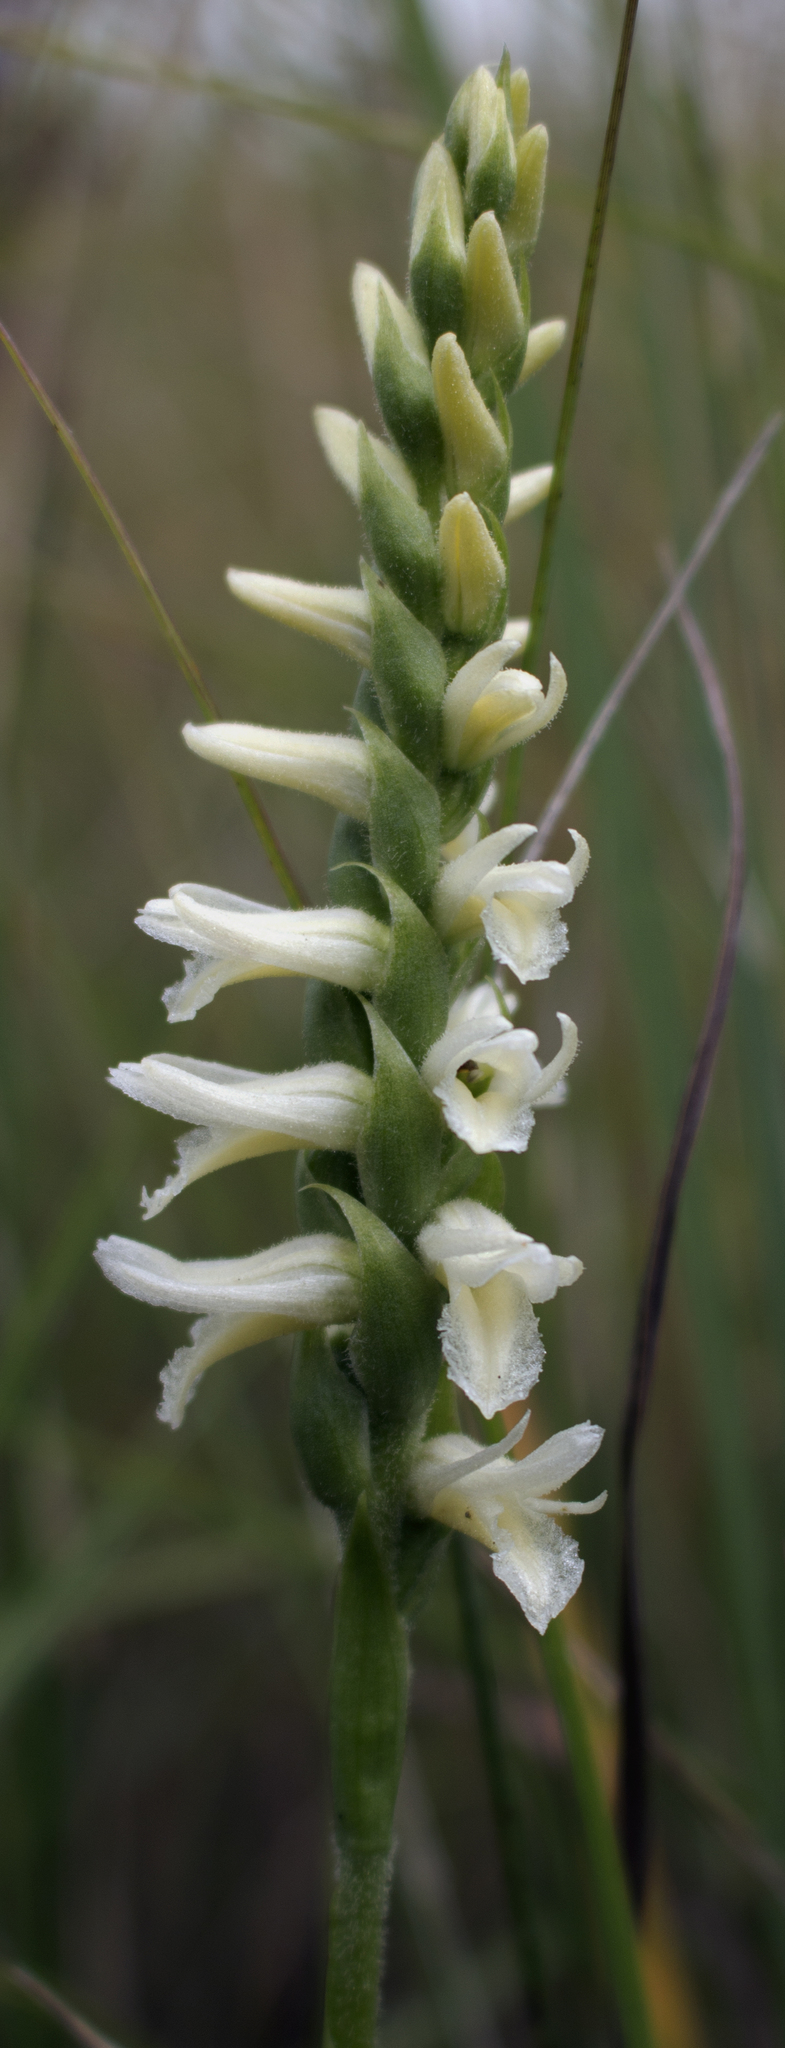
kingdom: Plantae
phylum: Tracheophyta
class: Liliopsida
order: Asparagales
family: Orchidaceae
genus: Spiranthes
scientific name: Spiranthes magnicamporum
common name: Great plains ladies'-tresses
